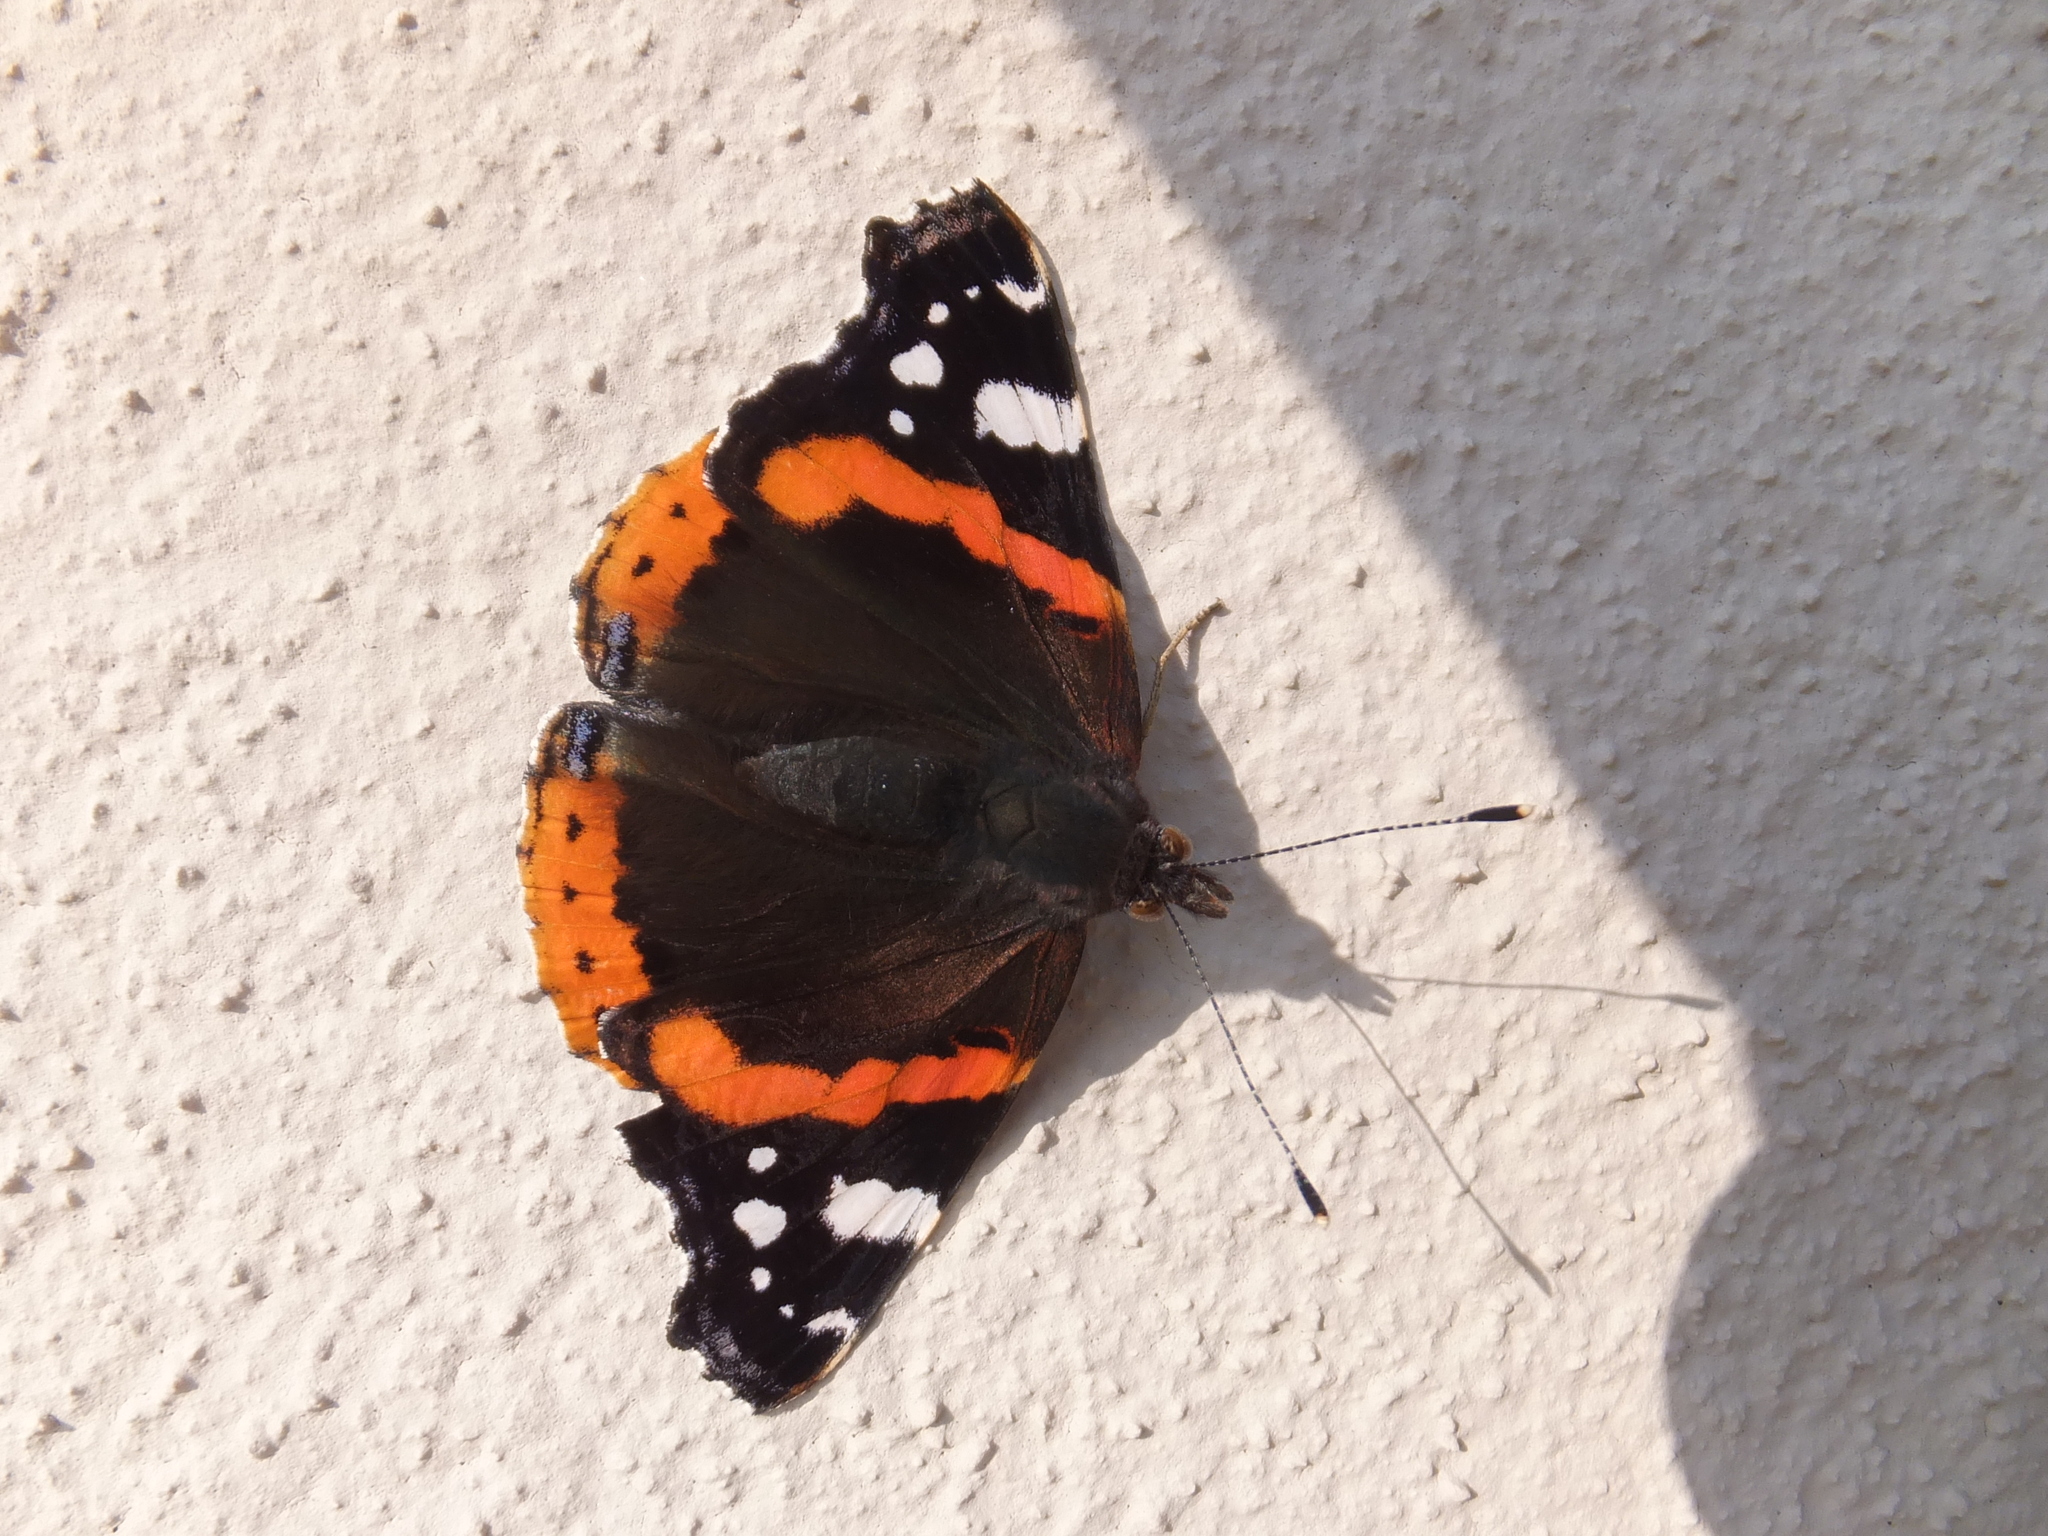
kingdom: Animalia
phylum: Arthropoda
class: Insecta
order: Lepidoptera
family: Nymphalidae
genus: Vanessa
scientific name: Vanessa atalanta
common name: Red admiral
